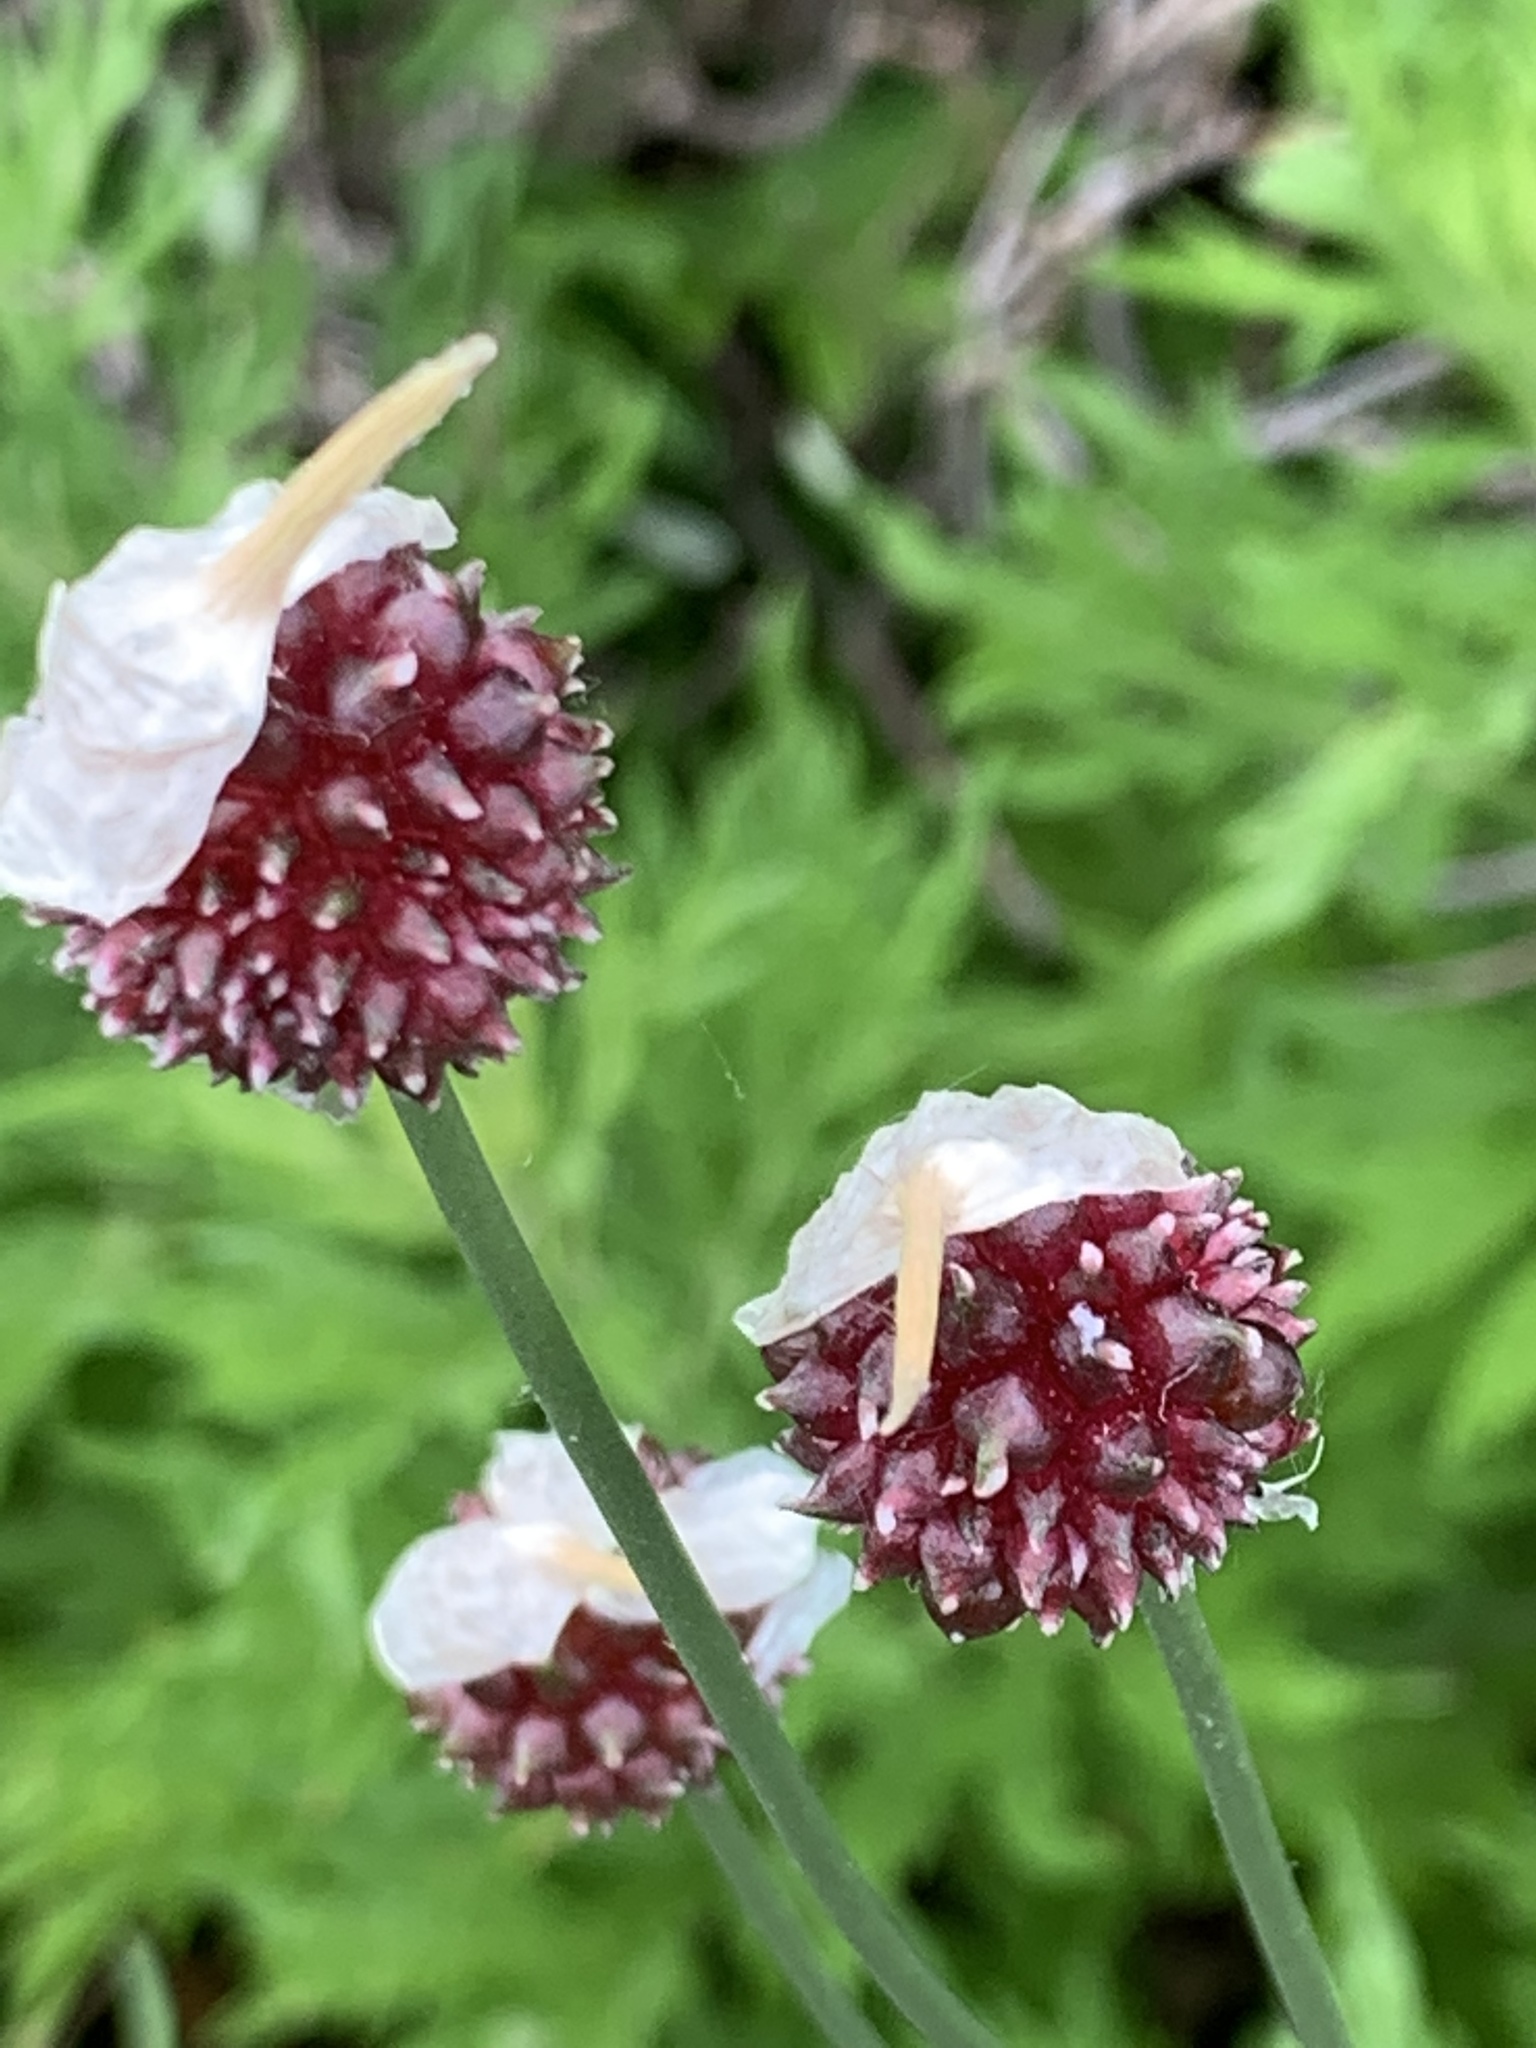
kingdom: Plantae
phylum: Tracheophyta
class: Liliopsida
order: Asparagales
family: Amaryllidaceae
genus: Allium
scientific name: Allium vineale
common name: Crow garlic
